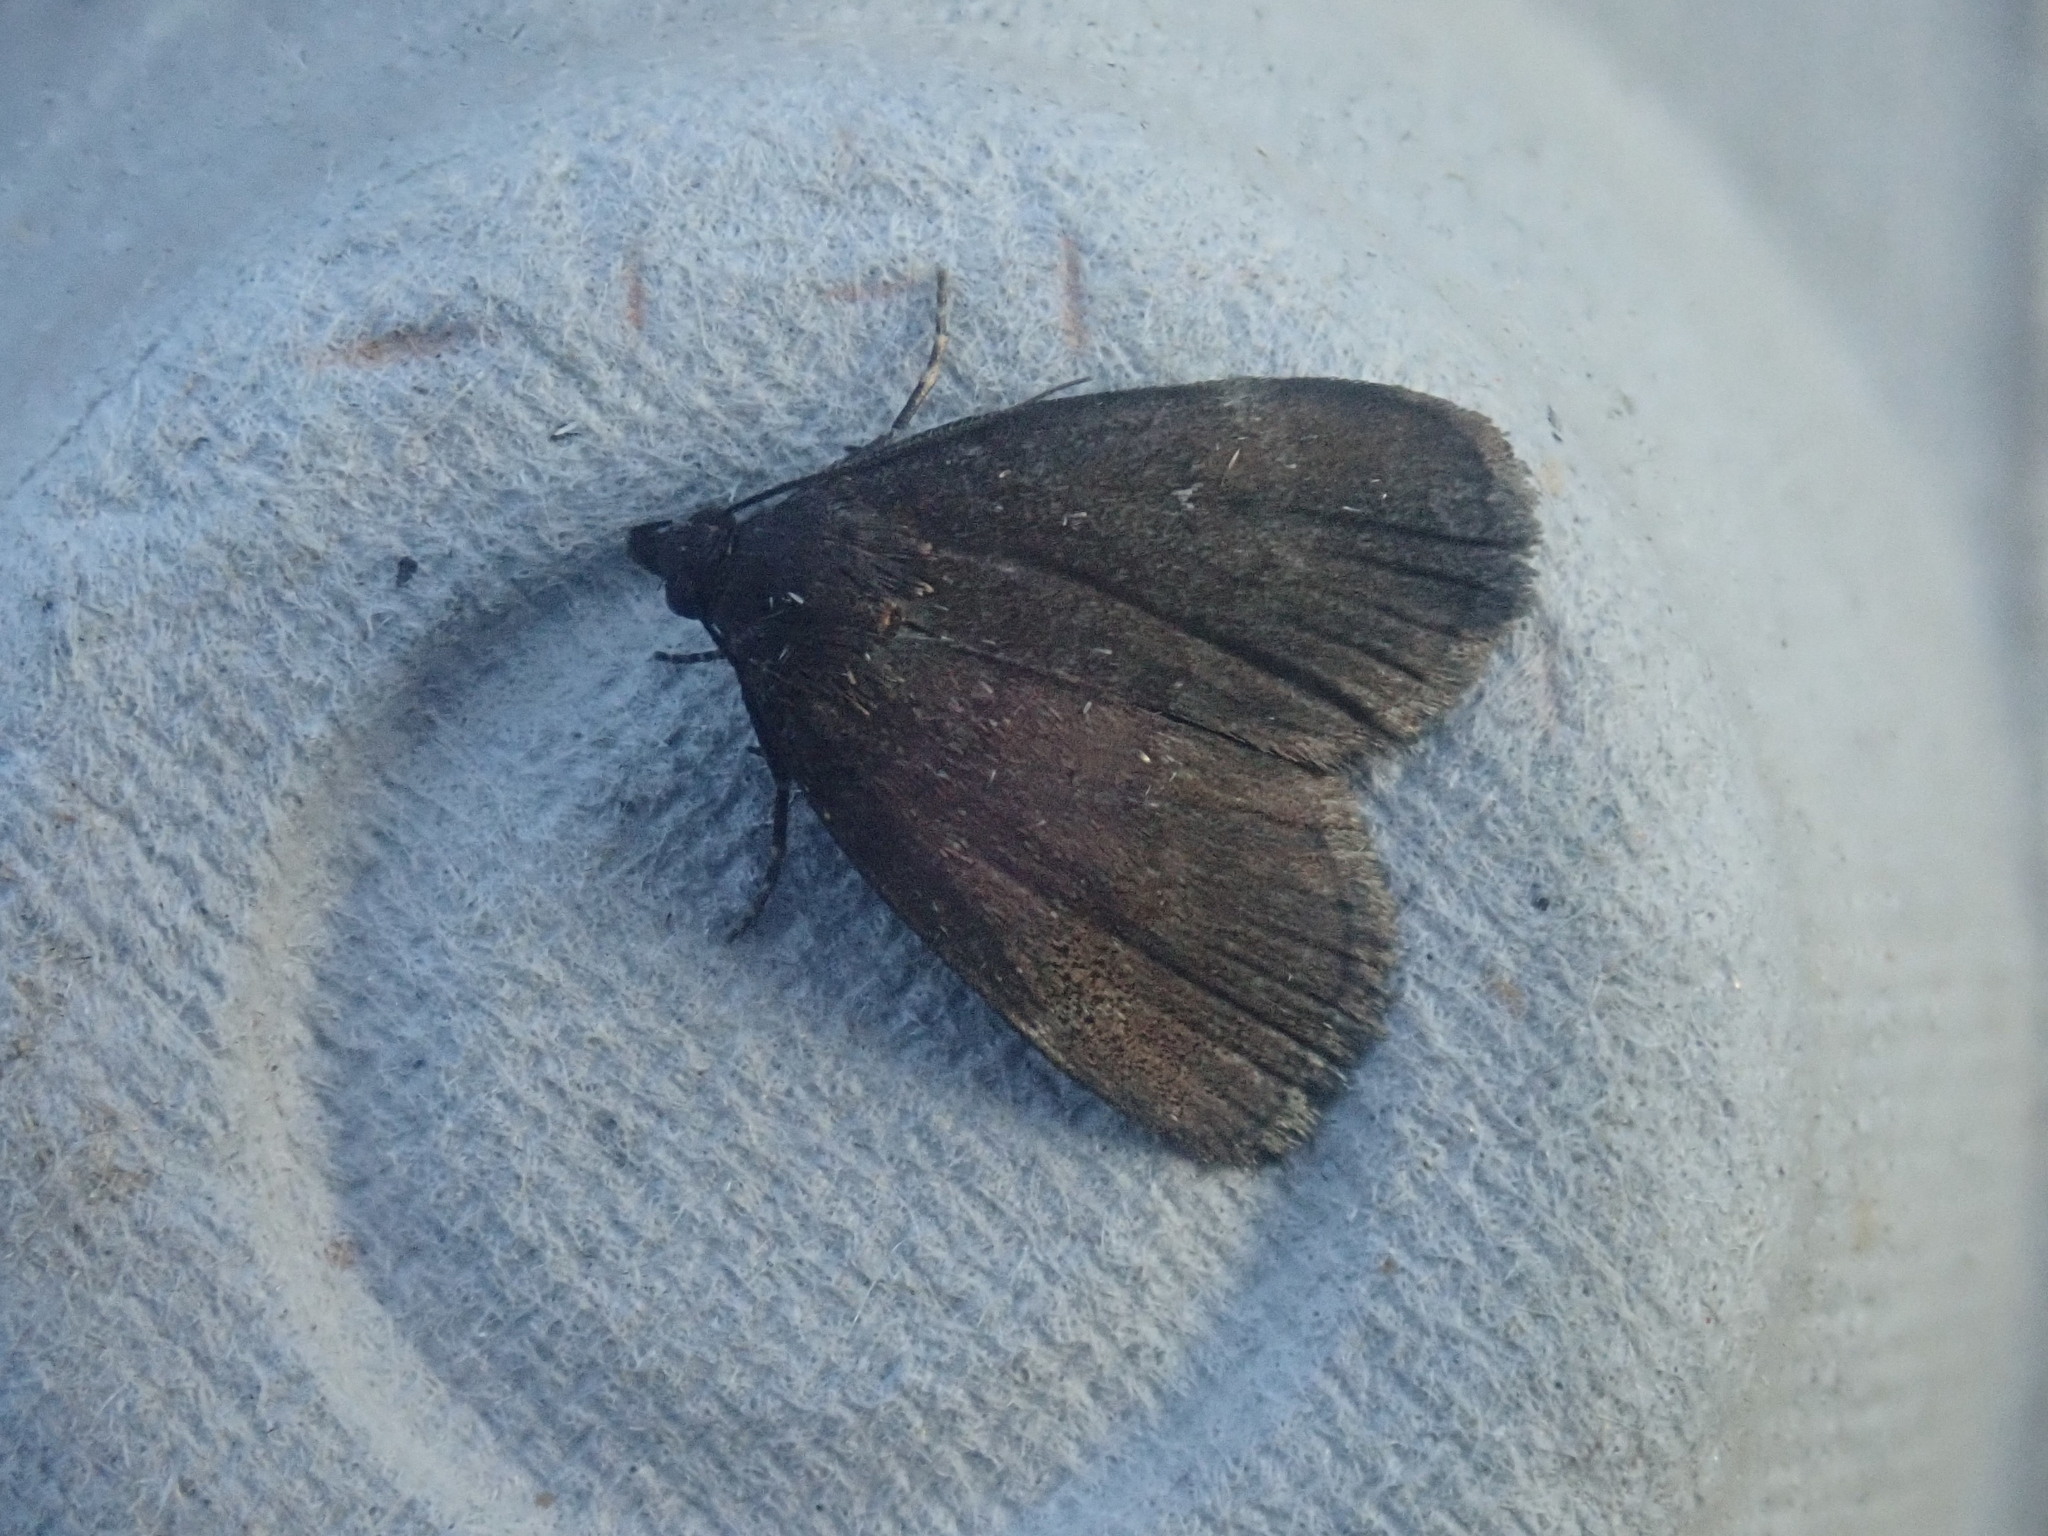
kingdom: Animalia
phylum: Arthropoda
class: Insecta
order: Lepidoptera
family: Erebidae
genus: Idia
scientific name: Idia rotundalis
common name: Rotund idia moth
